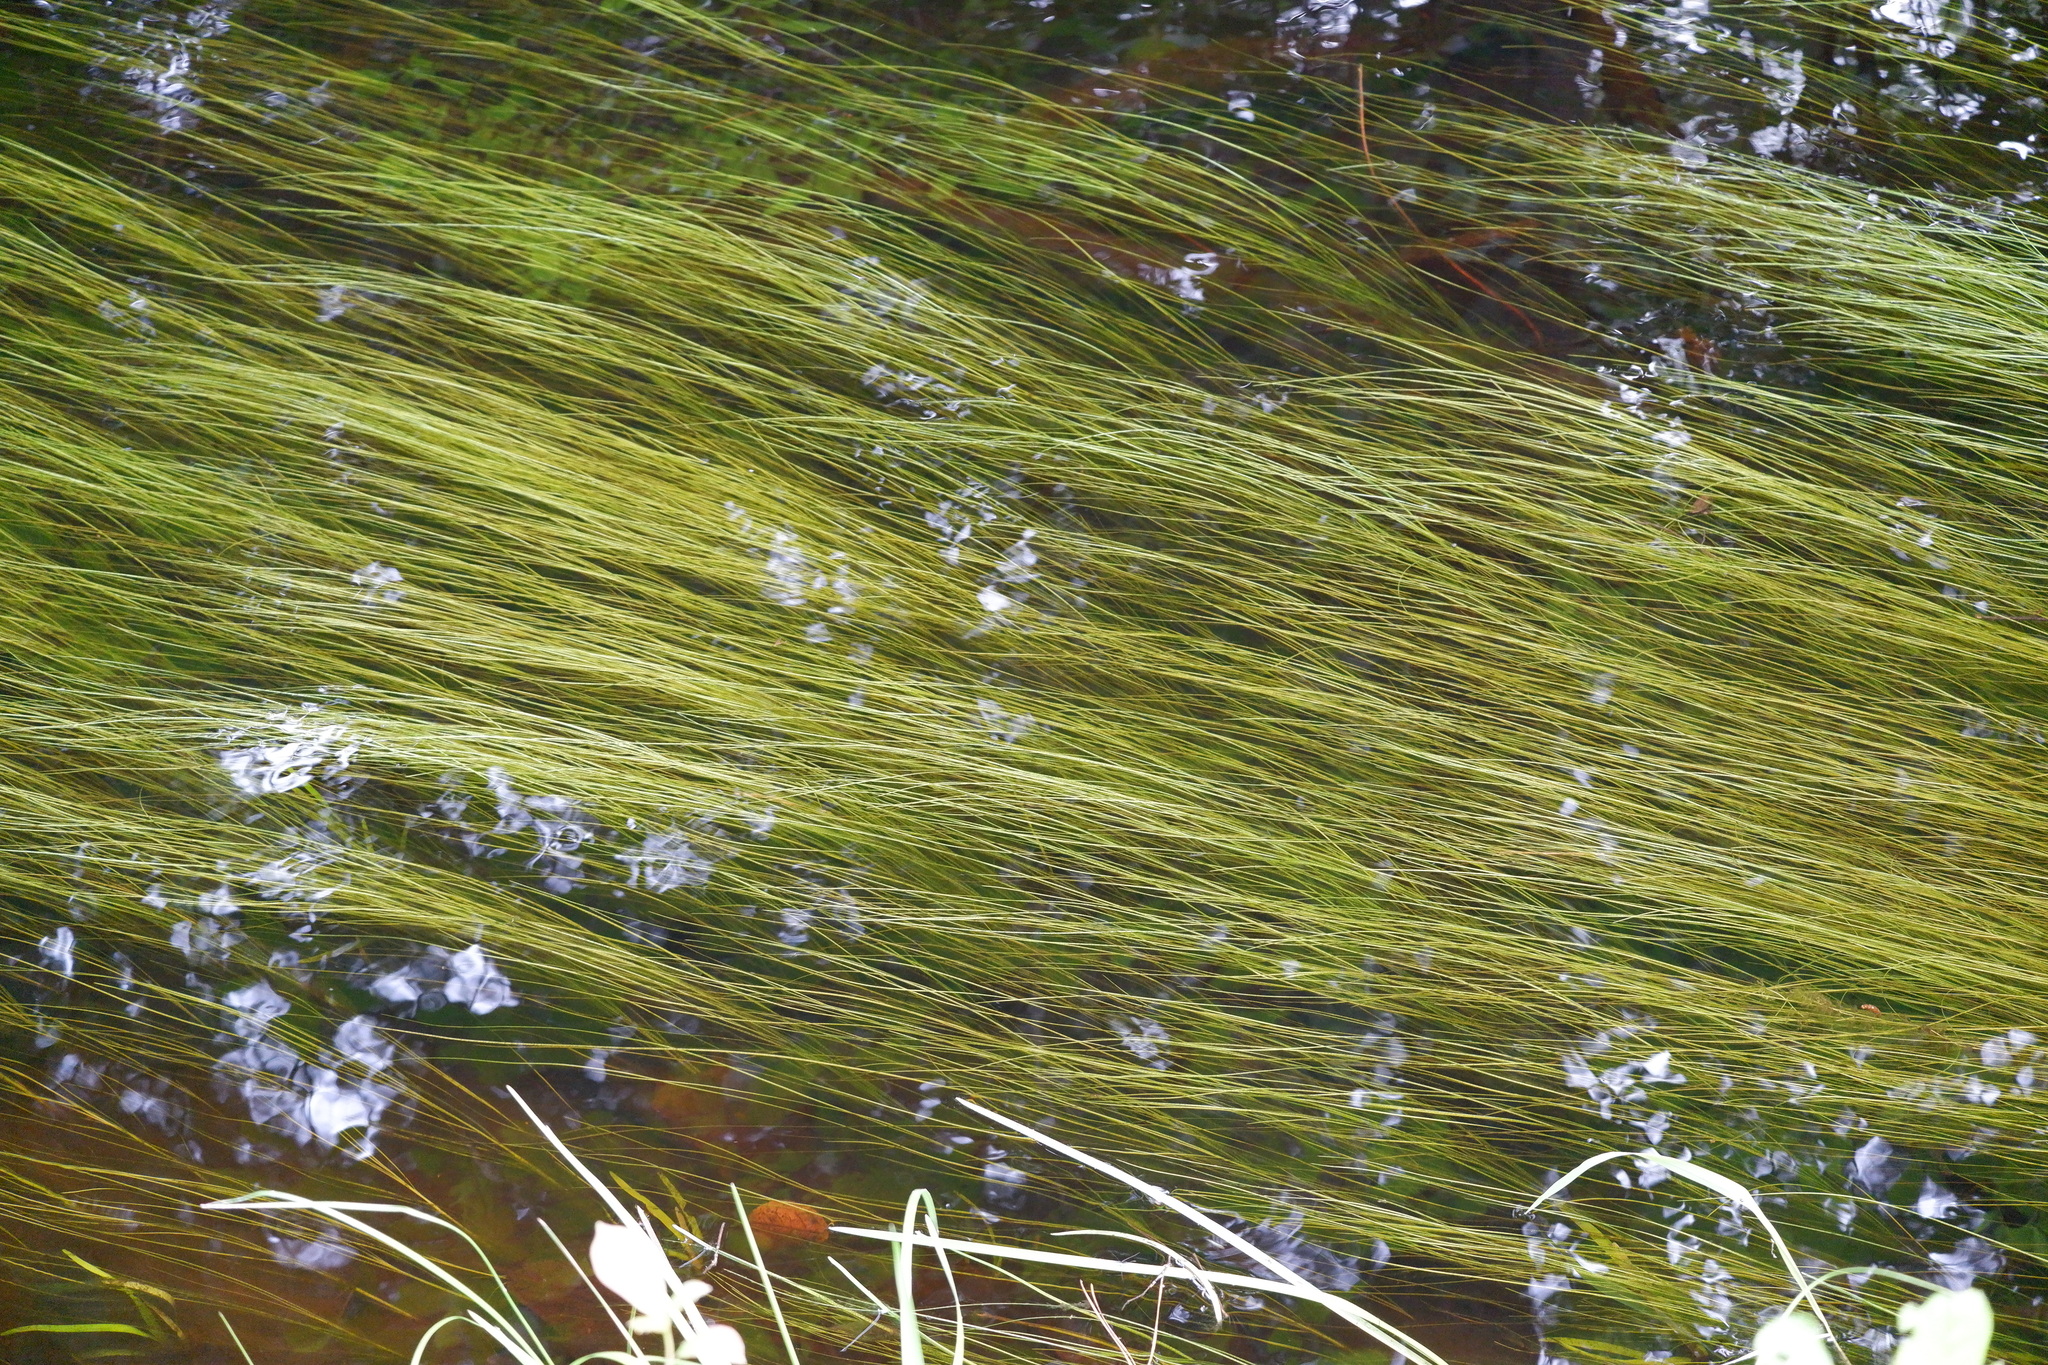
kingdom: Plantae
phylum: Tracheophyta
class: Liliopsida
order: Poales
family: Cyperaceae
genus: Schoenoplectus
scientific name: Schoenoplectus subterminalis
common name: Swaying bulrush
